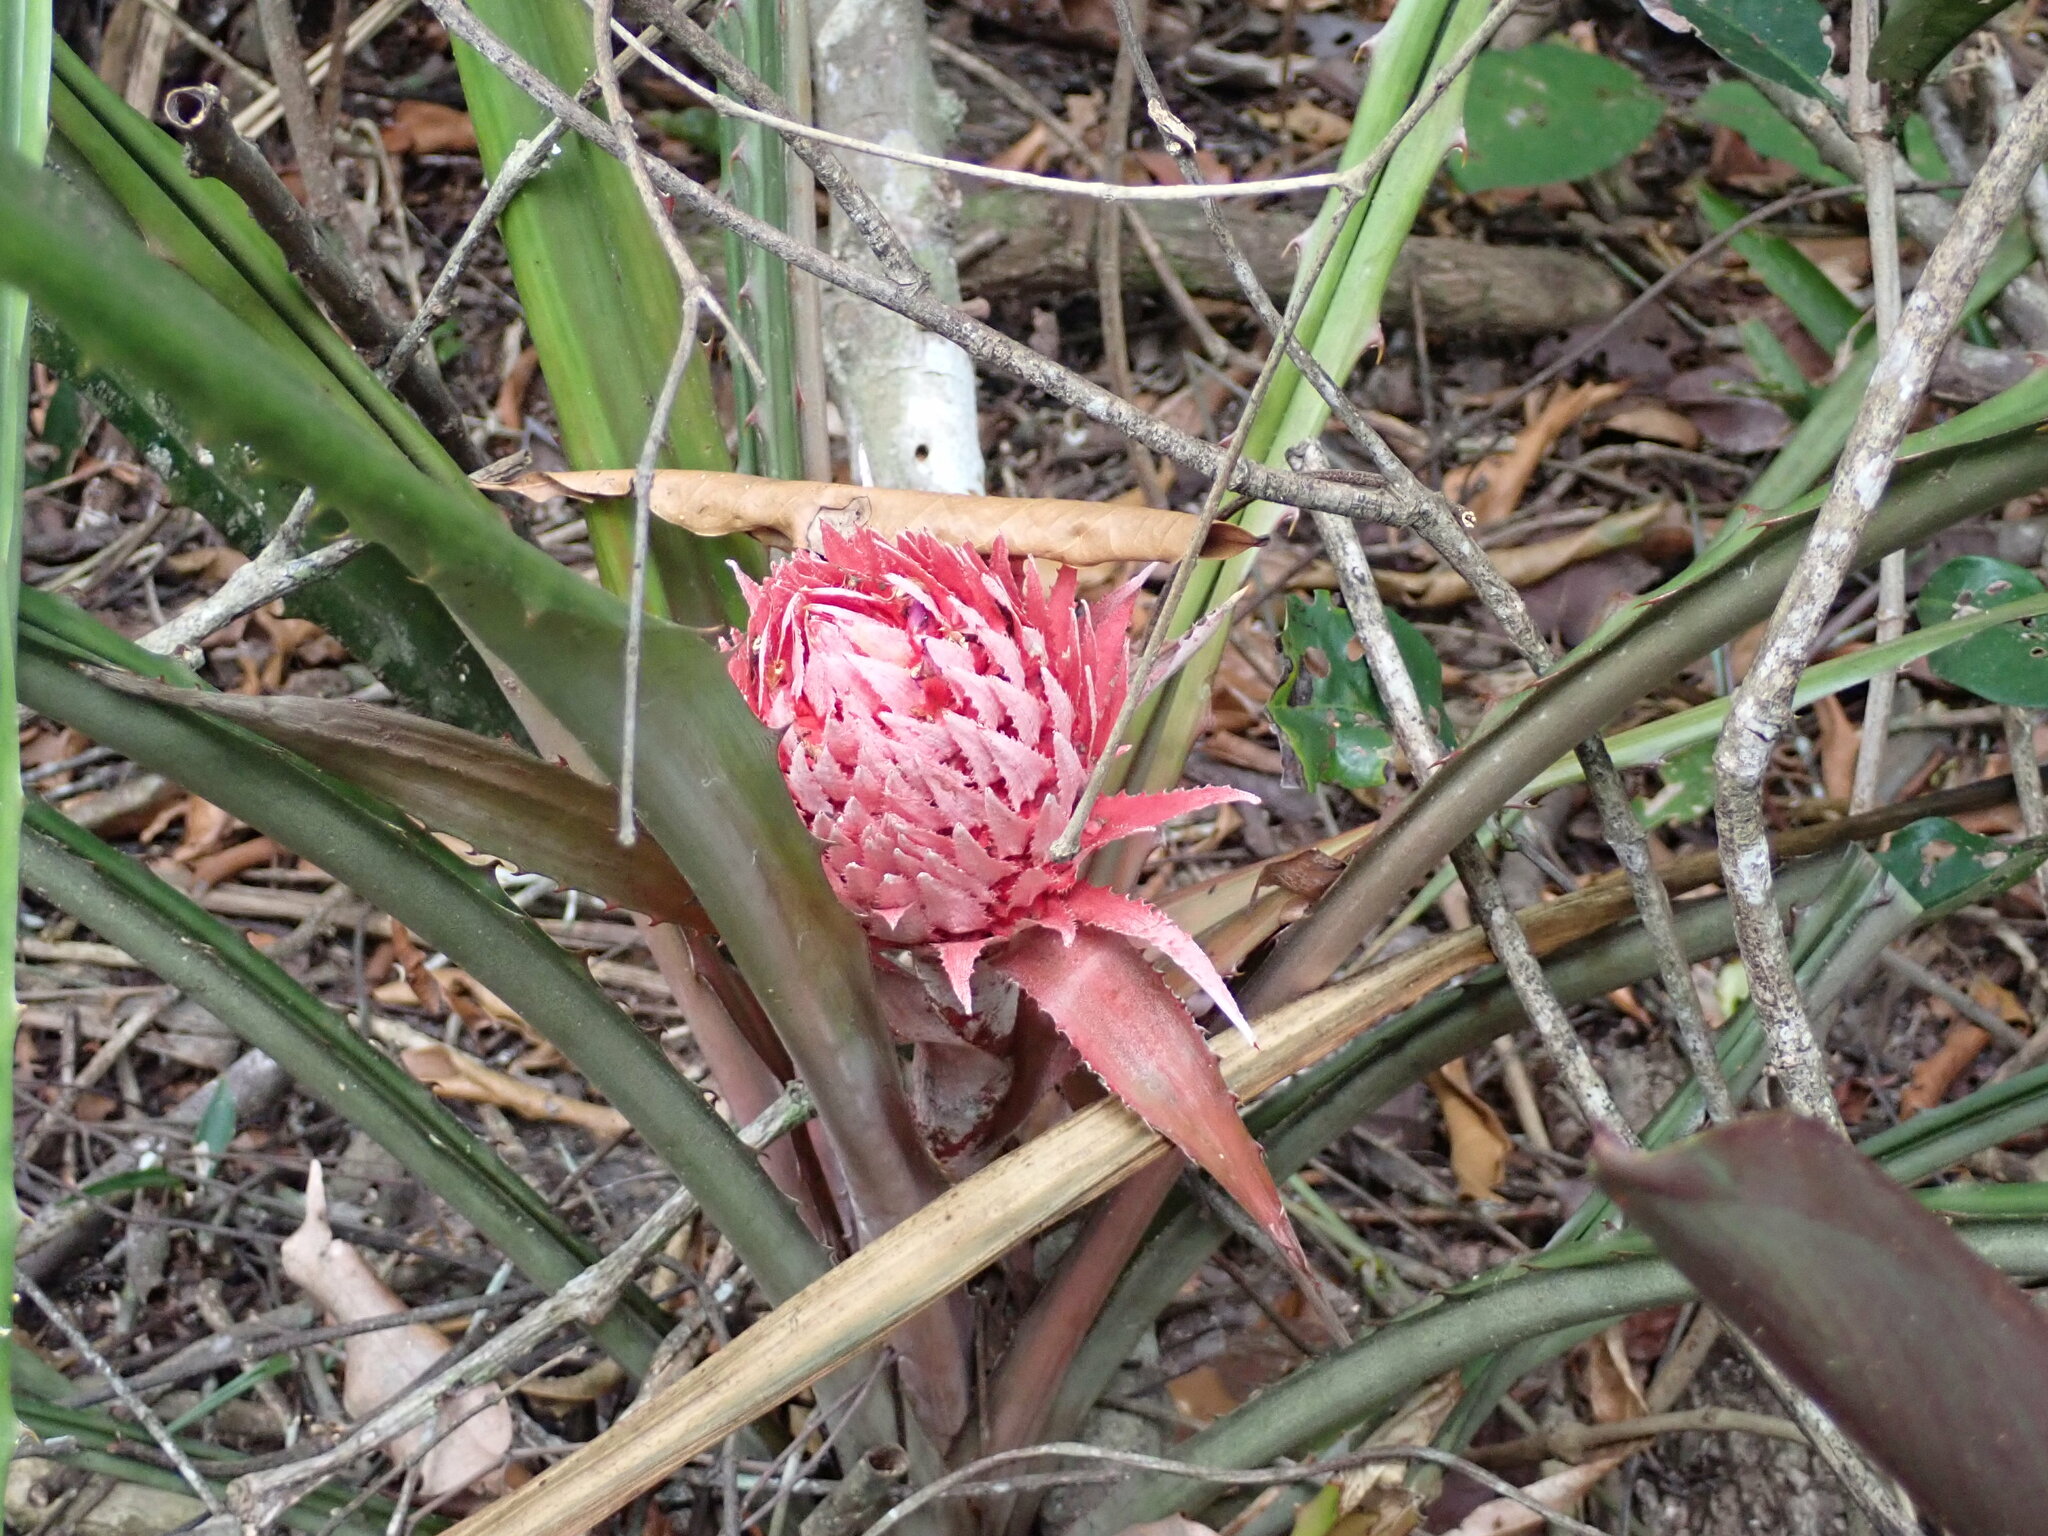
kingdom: Plantae
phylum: Tracheophyta
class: Liliopsida
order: Poales
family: Bromeliaceae
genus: Ananas
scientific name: Ananas macrodontes
